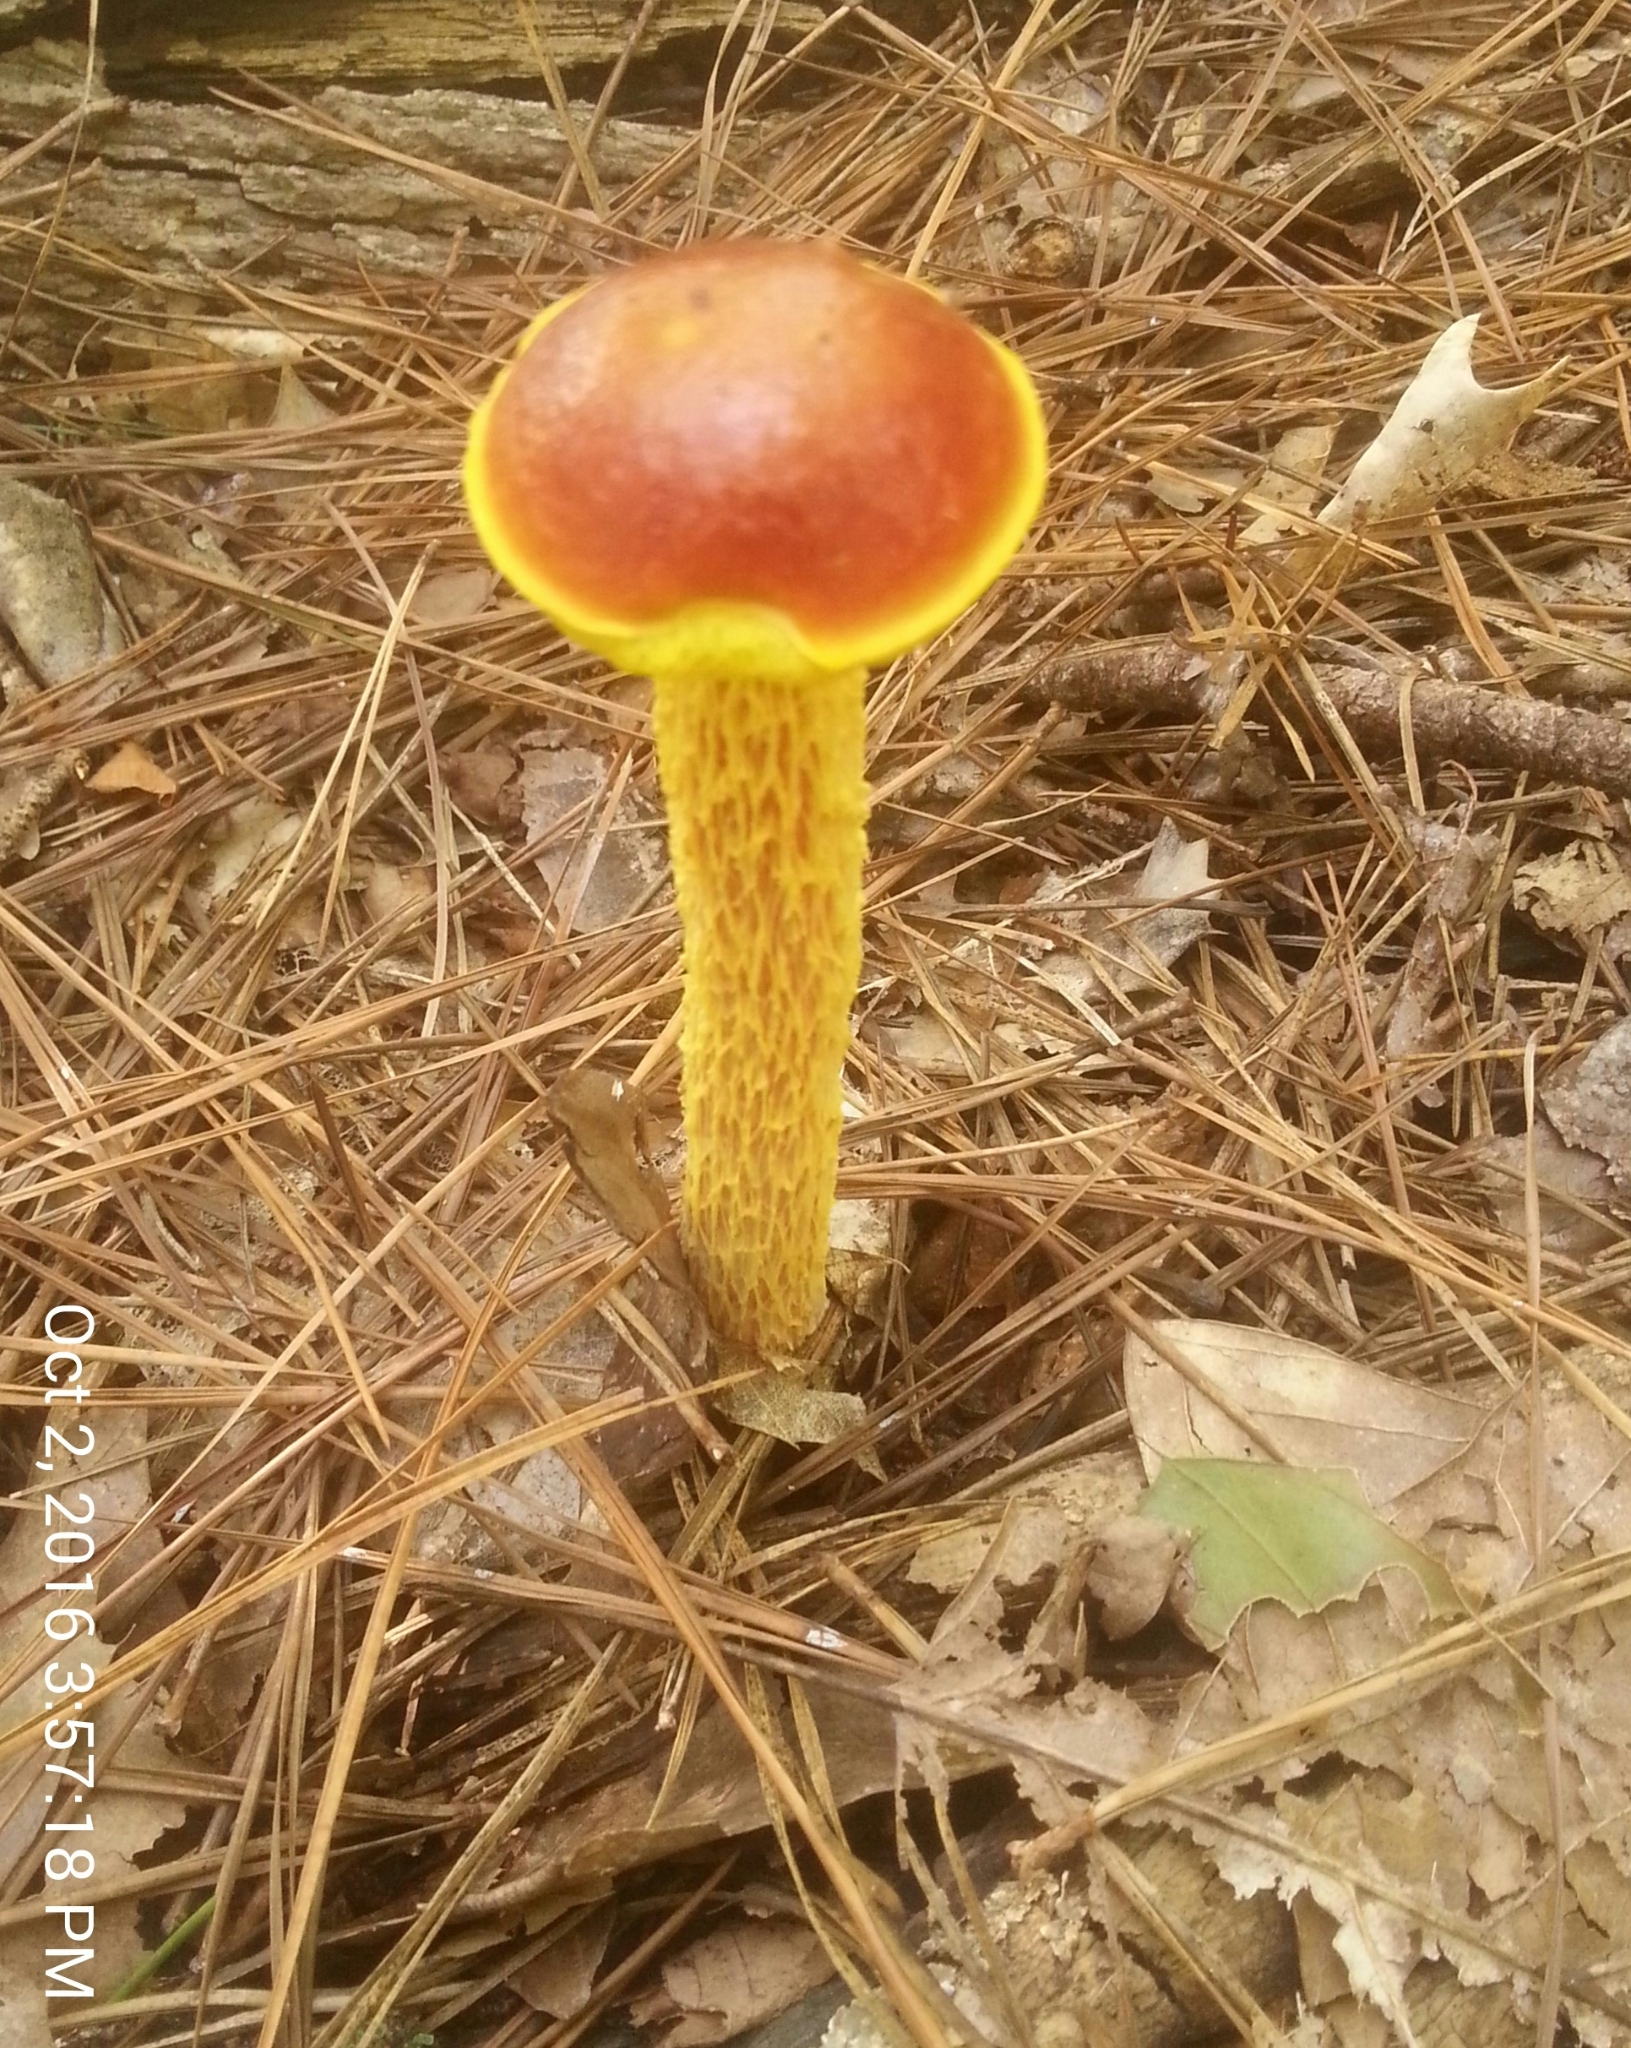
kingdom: Fungi
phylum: Basidiomycota
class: Agaricomycetes
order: Boletales
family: Boletaceae
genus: Aureoboletus
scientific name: Aureoboletus betula
